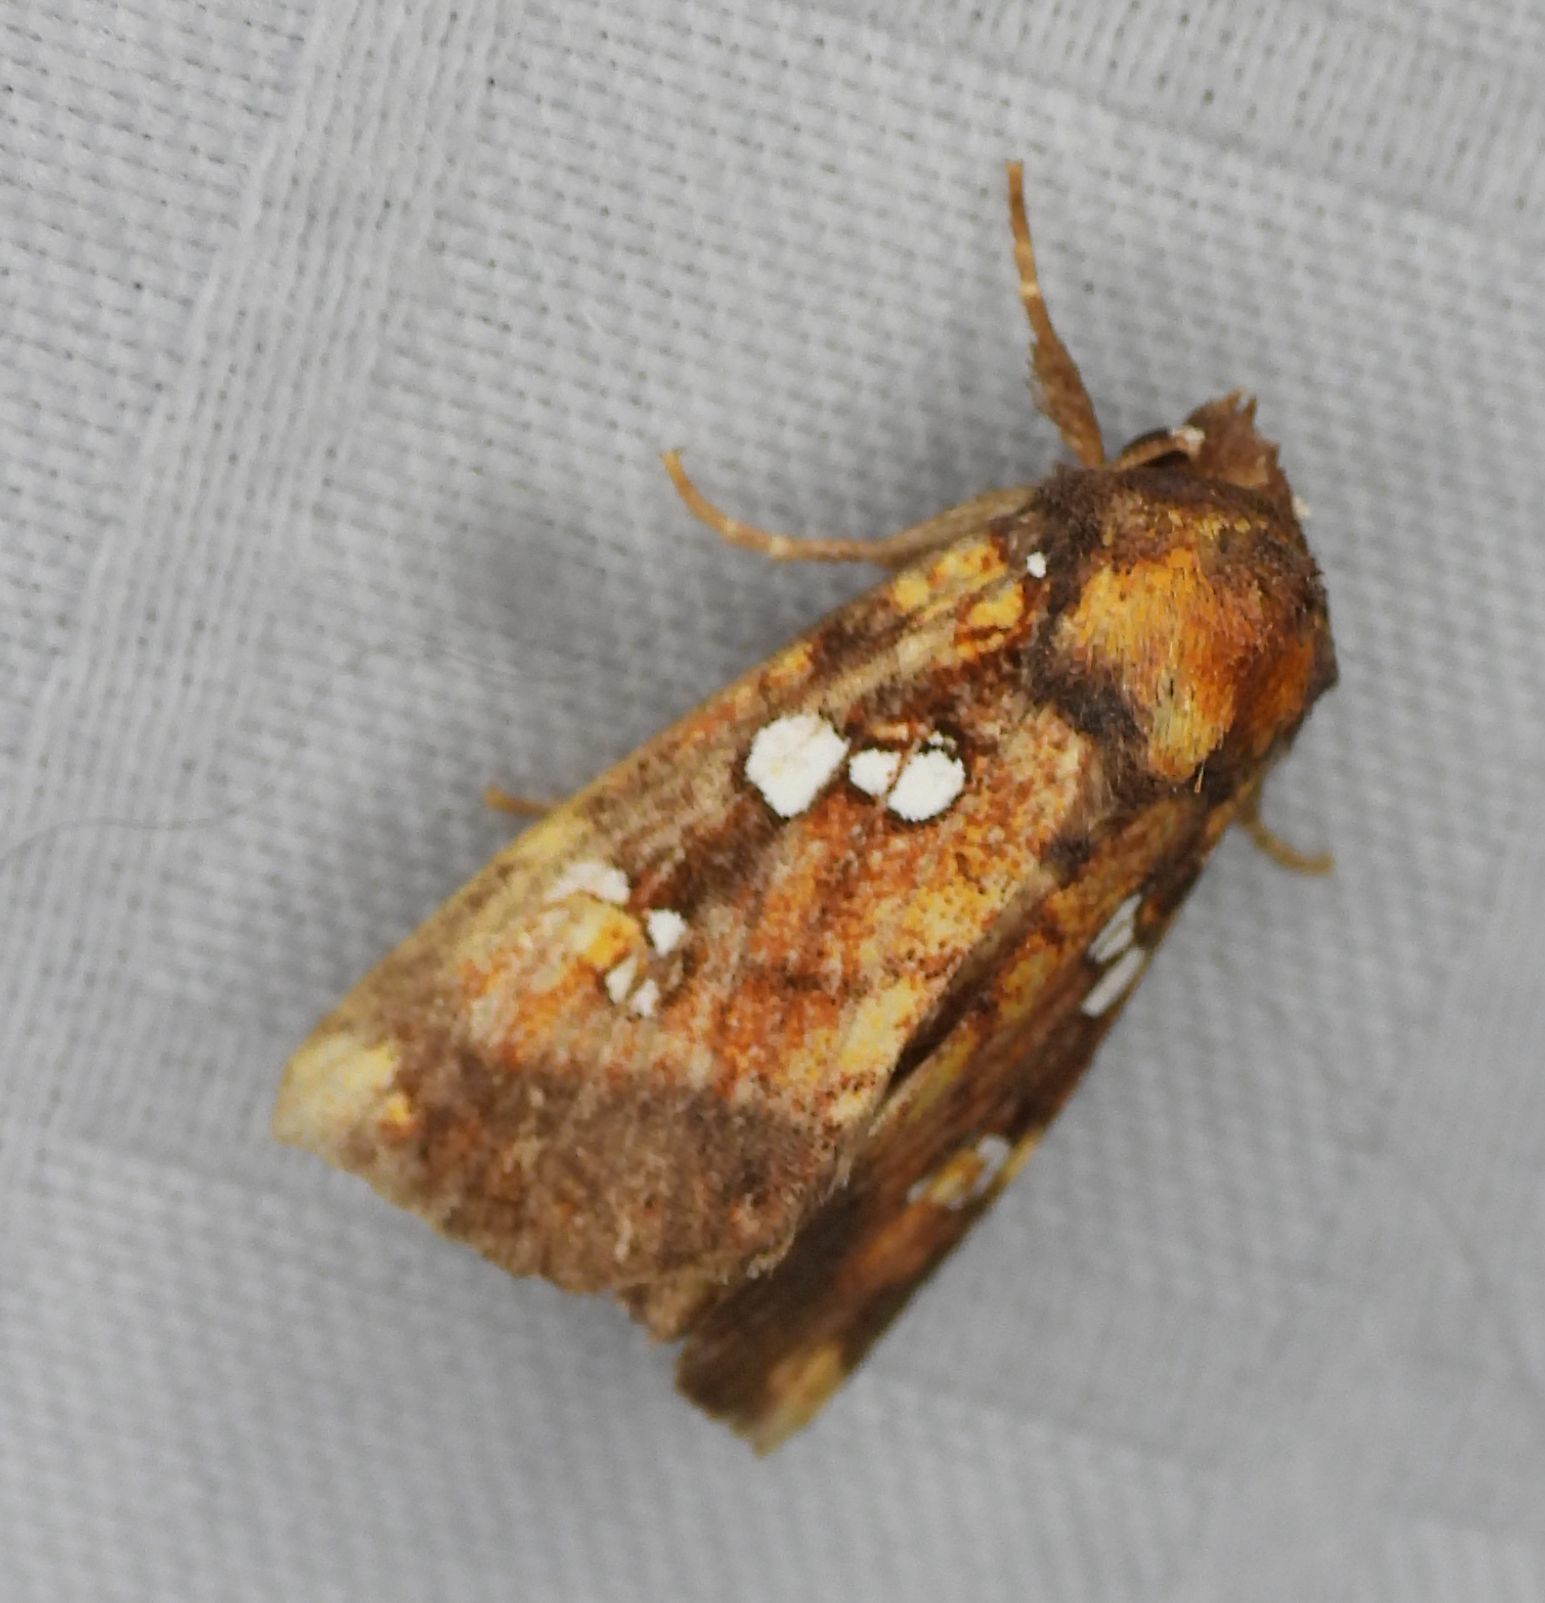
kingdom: Animalia
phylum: Arthropoda
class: Insecta
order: Lepidoptera
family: Noctuidae
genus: Papaipema
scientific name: Papaipema lysimachiae
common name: Loosestrife borer moth
